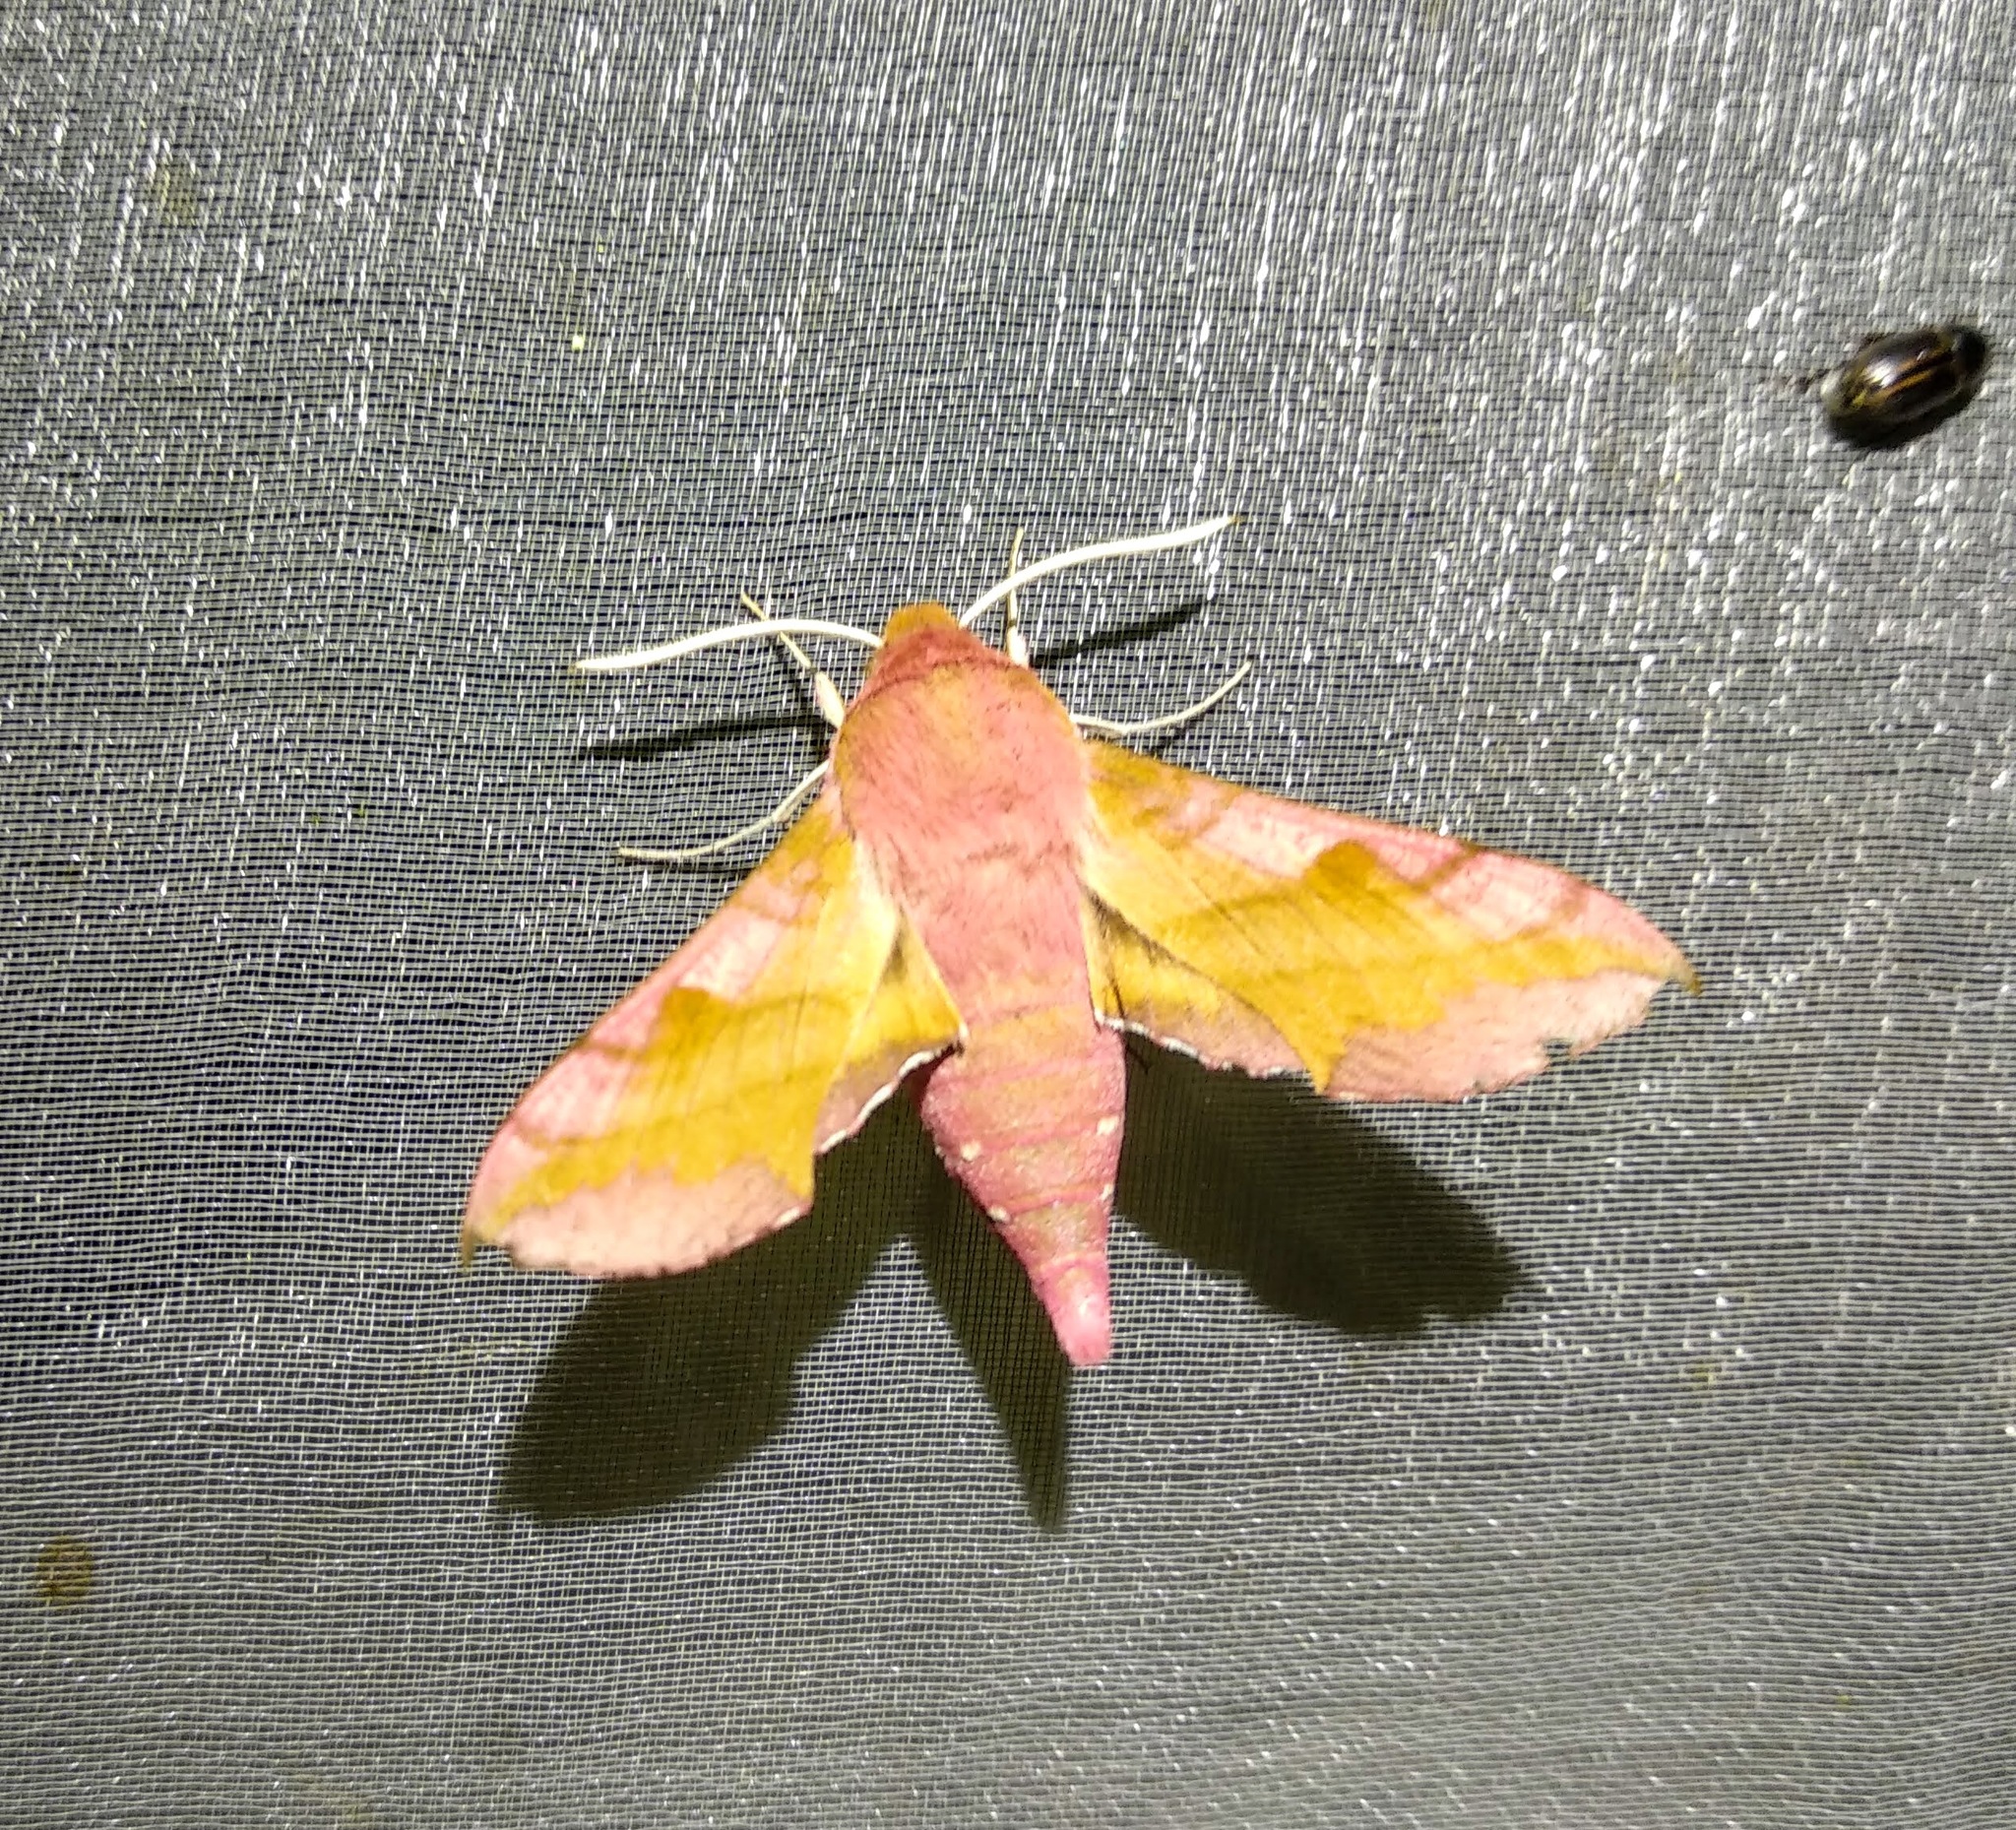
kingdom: Animalia
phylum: Arthropoda
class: Insecta
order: Lepidoptera
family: Sphingidae
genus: Deilephila
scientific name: Deilephila porcellus
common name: Small elephant hawk-moth
